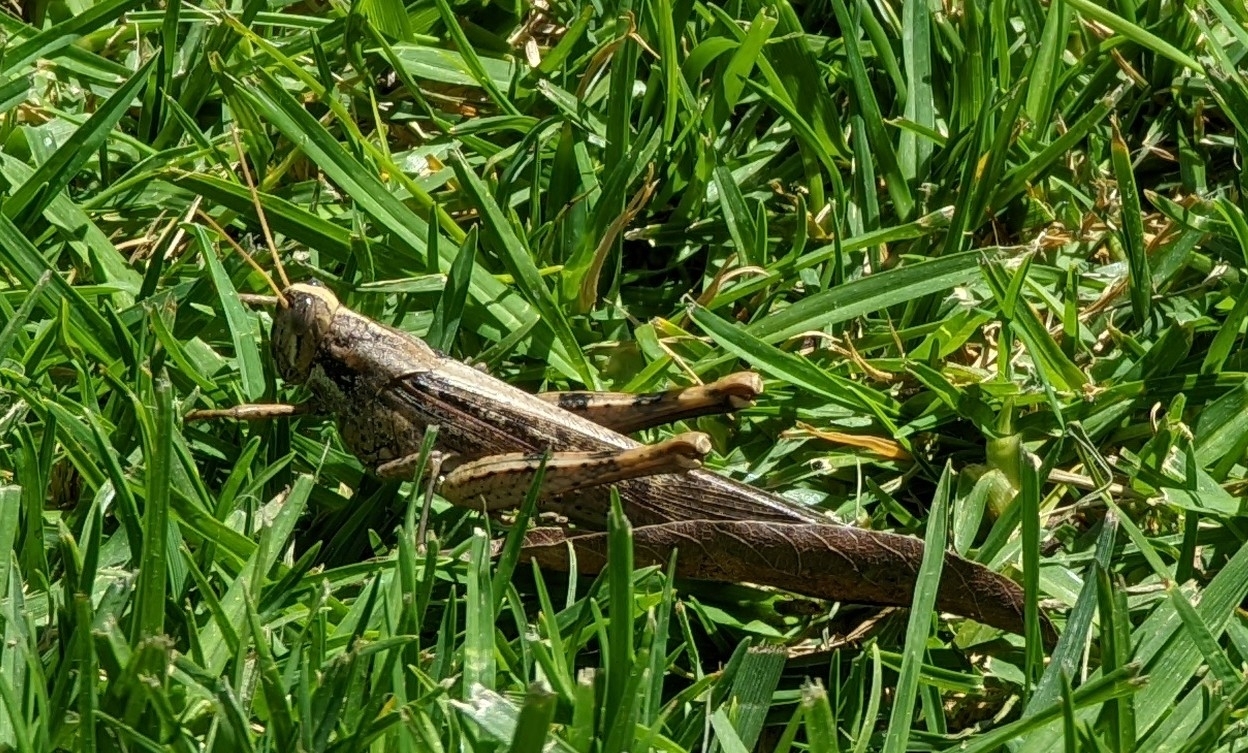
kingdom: Animalia
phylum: Arthropoda
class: Insecta
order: Orthoptera
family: Acrididae
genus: Schistocerca
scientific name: Schistocerca nitens
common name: Vagrant grasshopper
